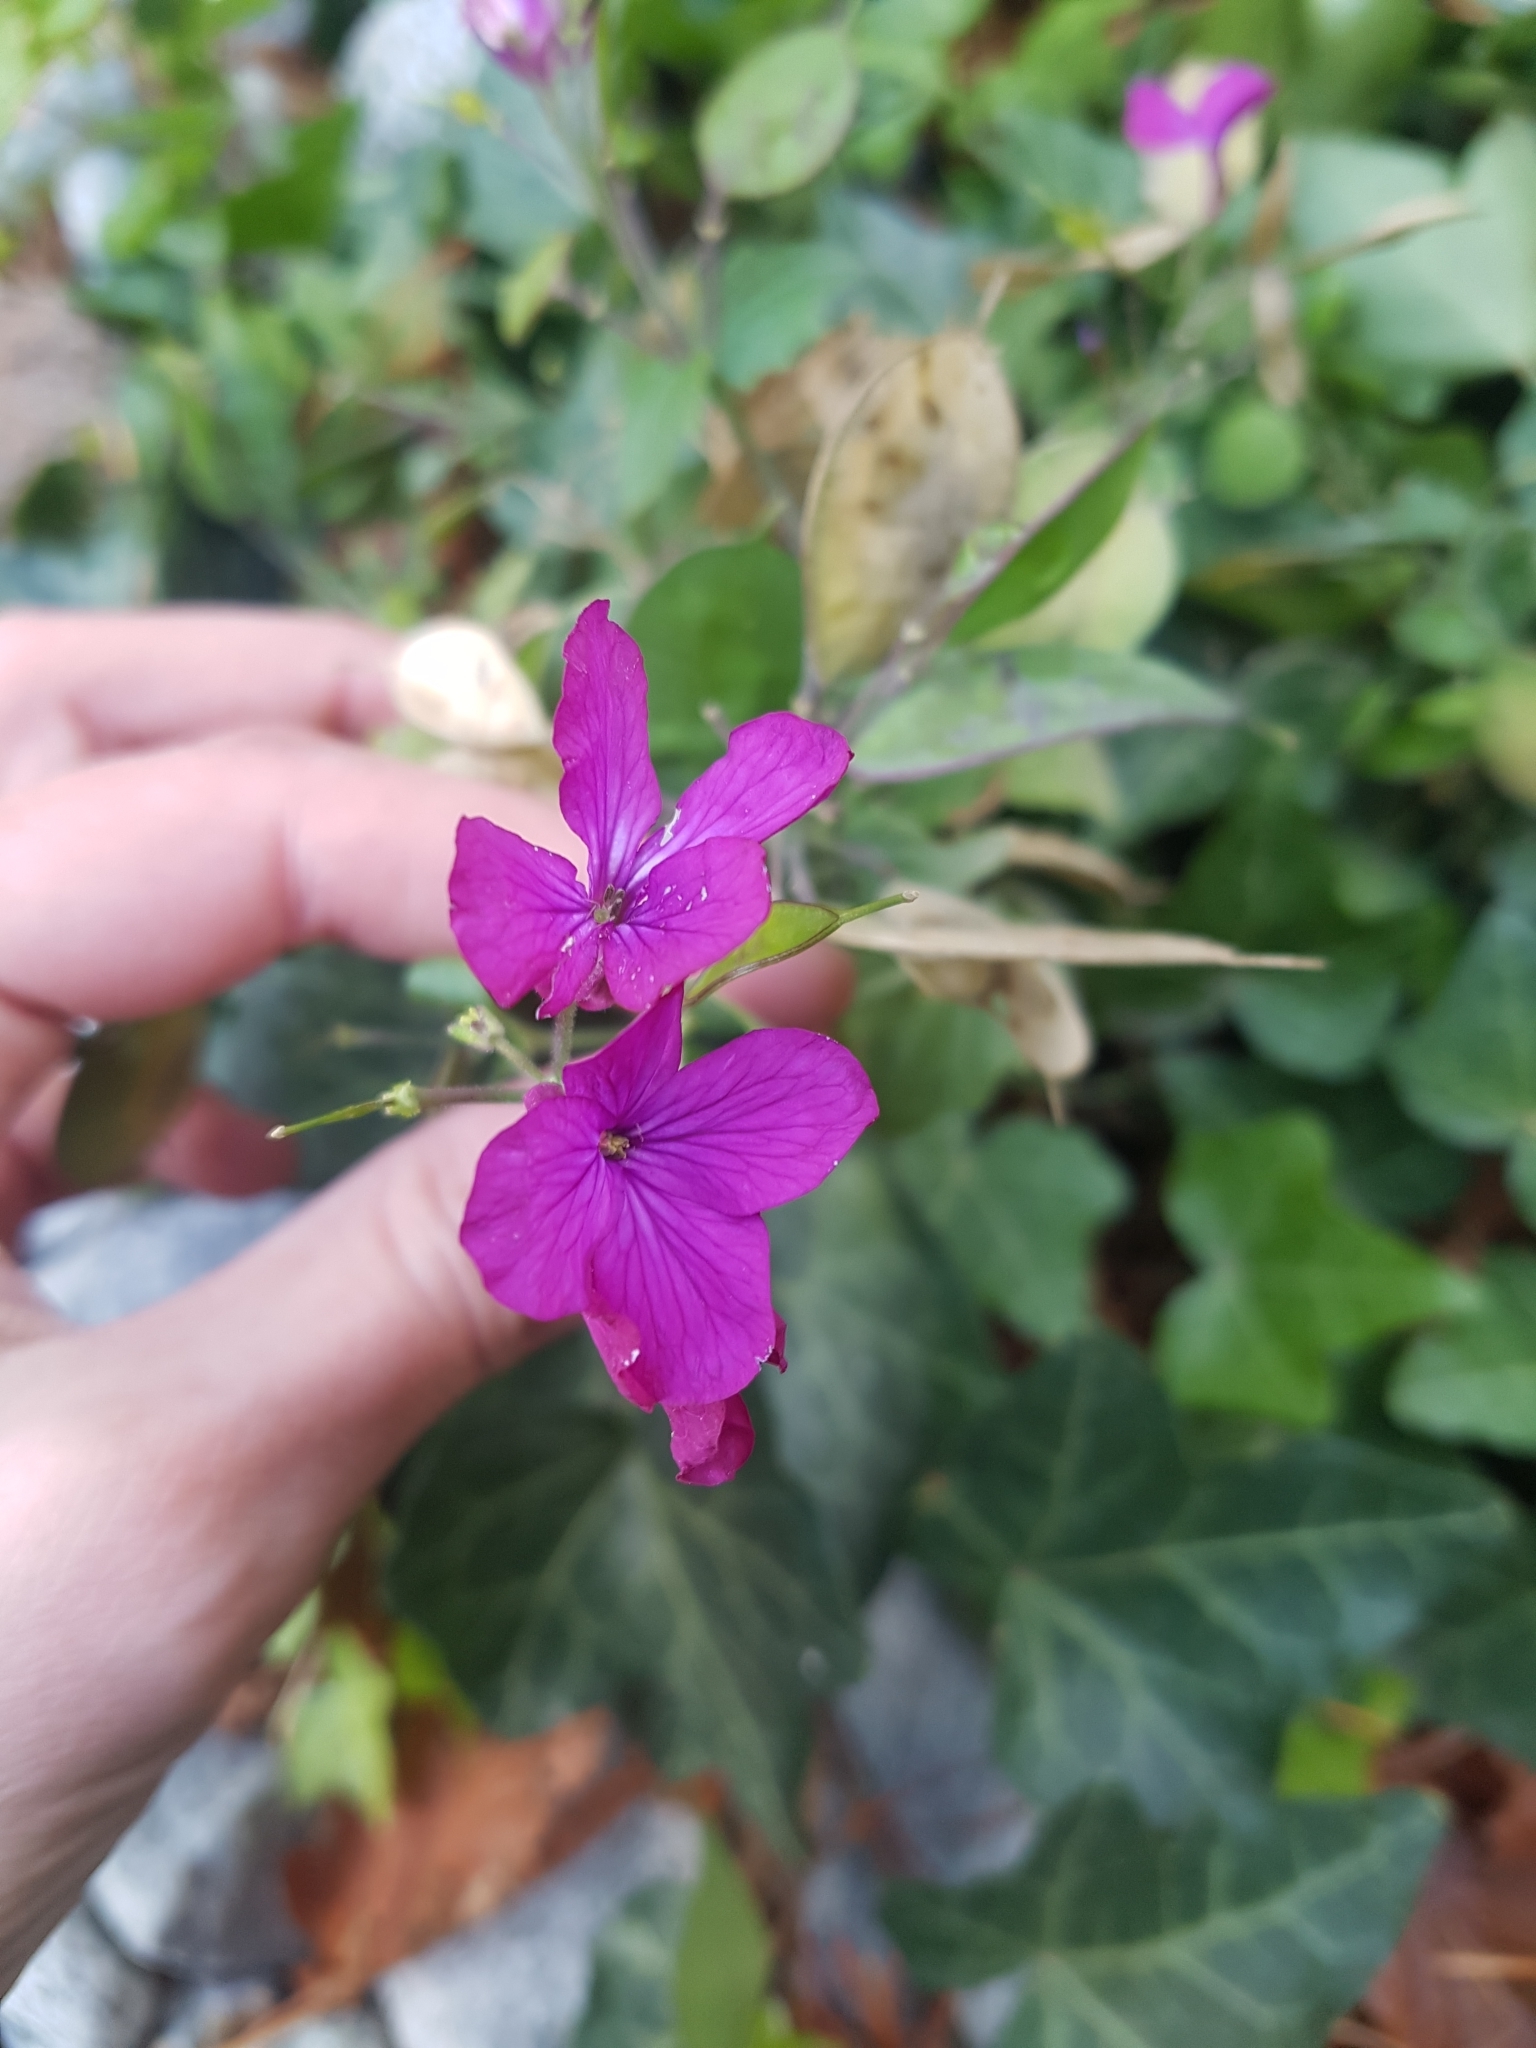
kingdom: Plantae
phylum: Tracheophyta
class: Magnoliopsida
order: Brassicales
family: Brassicaceae
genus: Lunaria
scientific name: Lunaria annua
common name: Honesty
